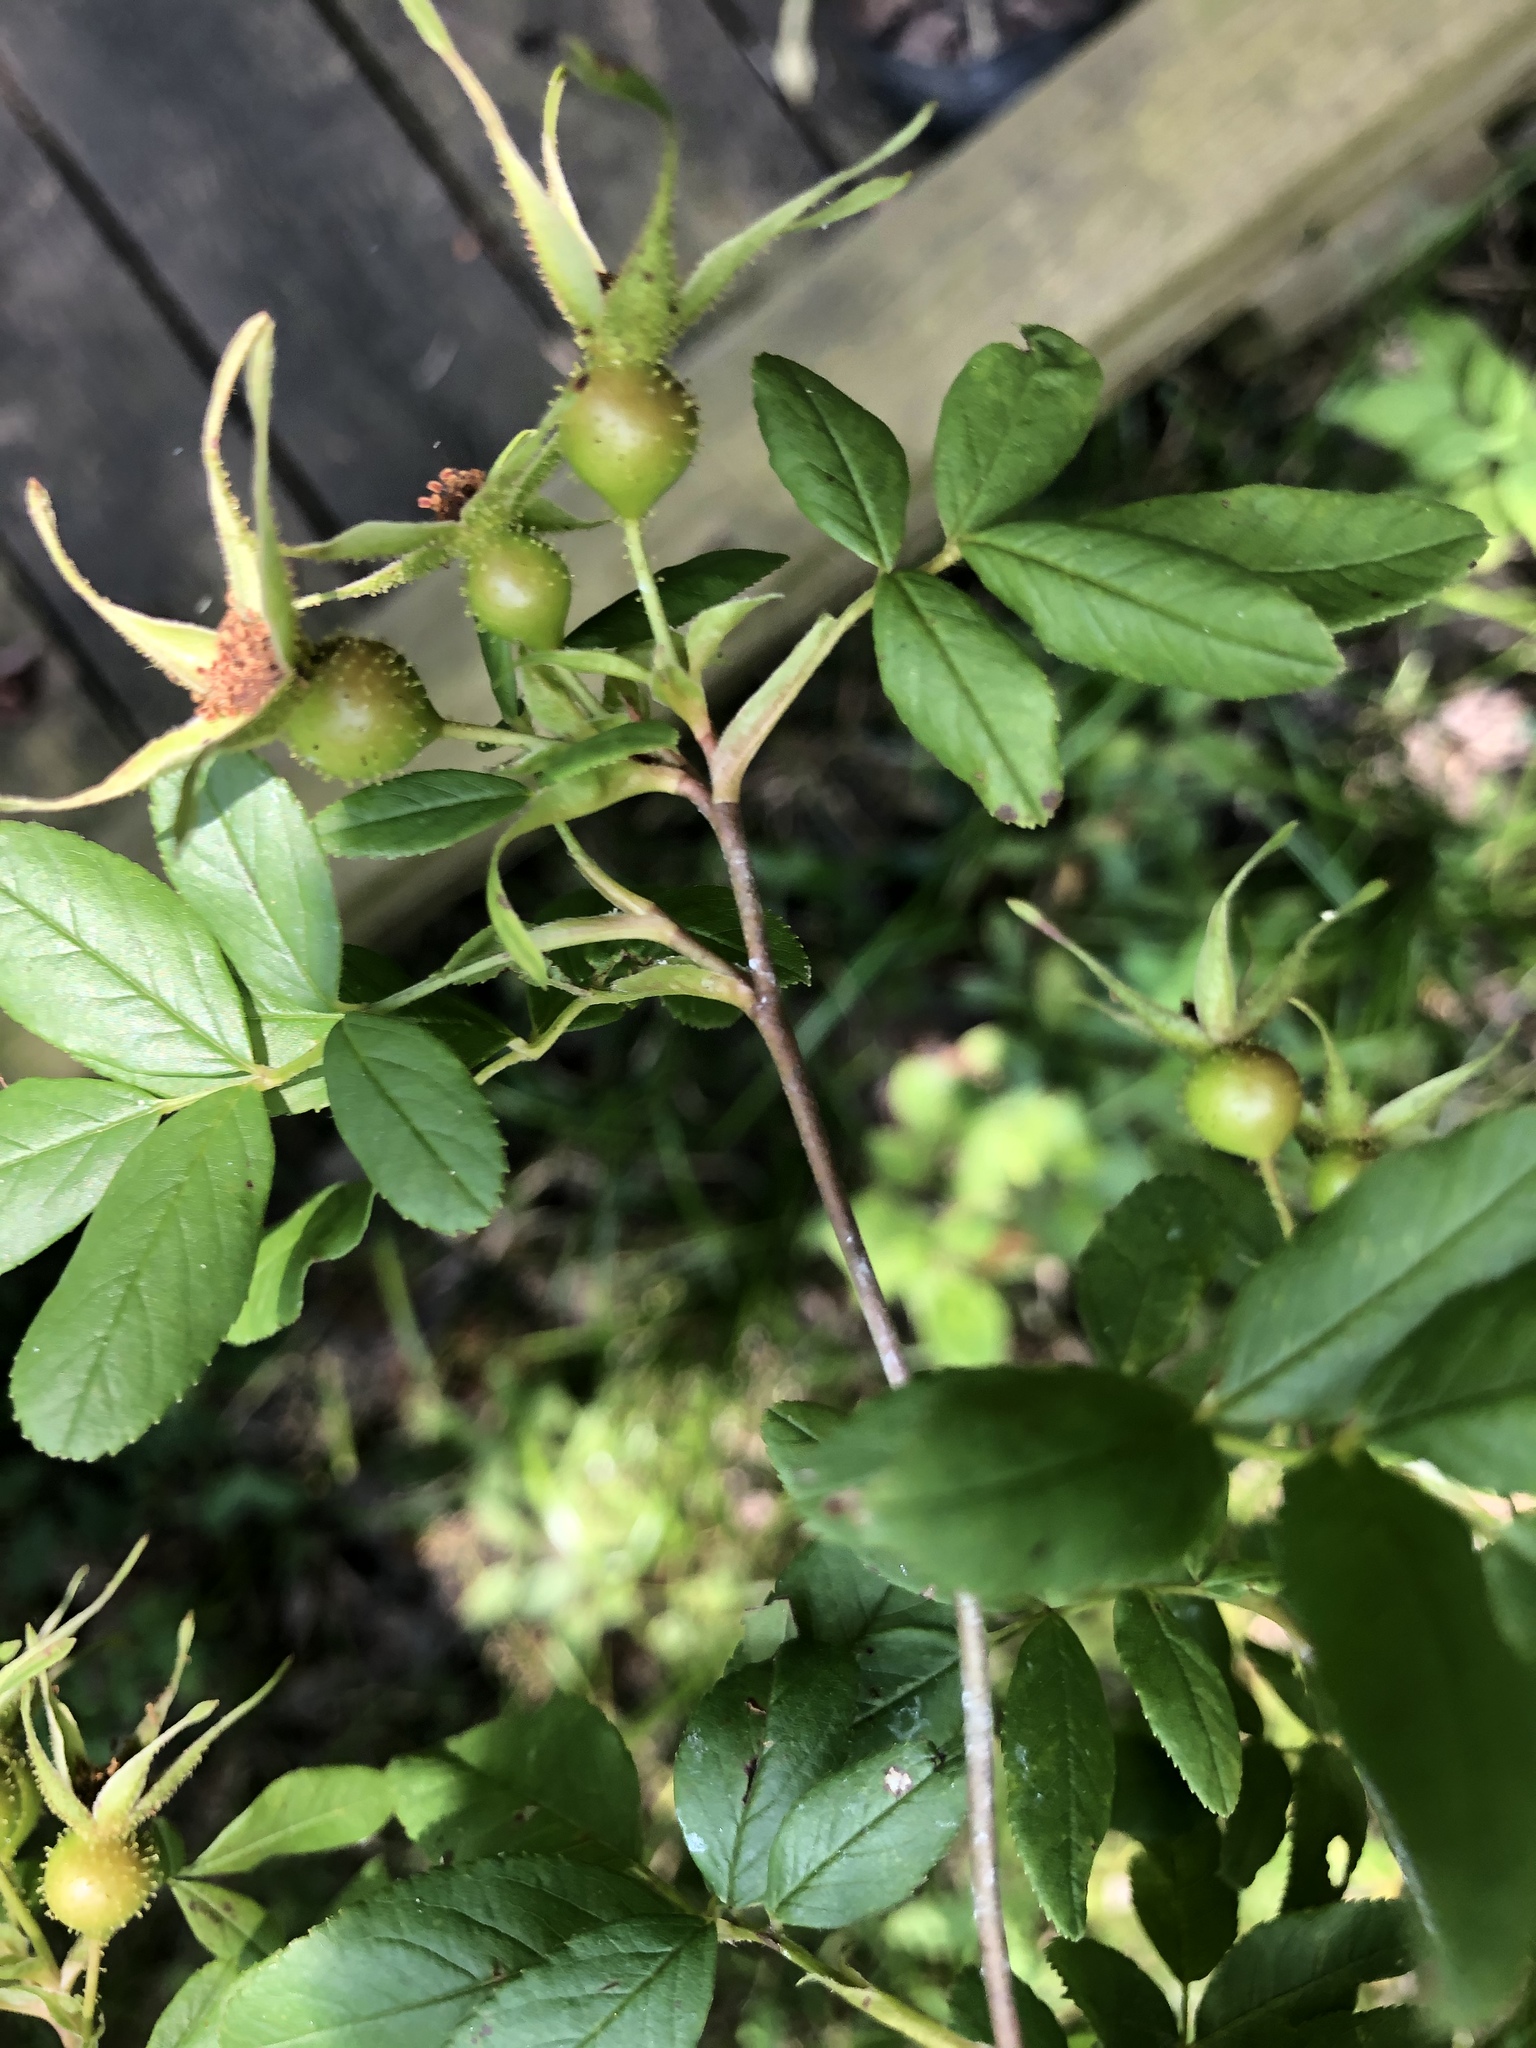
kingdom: Plantae
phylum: Tracheophyta
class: Magnoliopsida
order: Rosales
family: Rosaceae
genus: Rosa
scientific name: Rosa palustris
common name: Swamp rose
